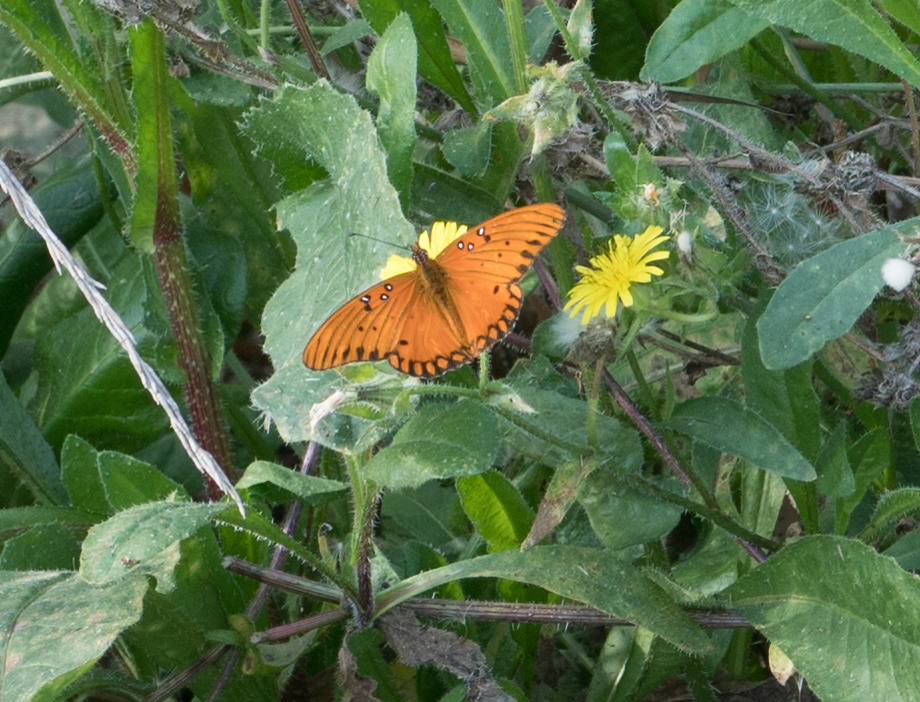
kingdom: Animalia
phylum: Arthropoda
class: Insecta
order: Lepidoptera
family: Nymphalidae
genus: Dione
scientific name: Dione vanillae
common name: Gulf fritillary
